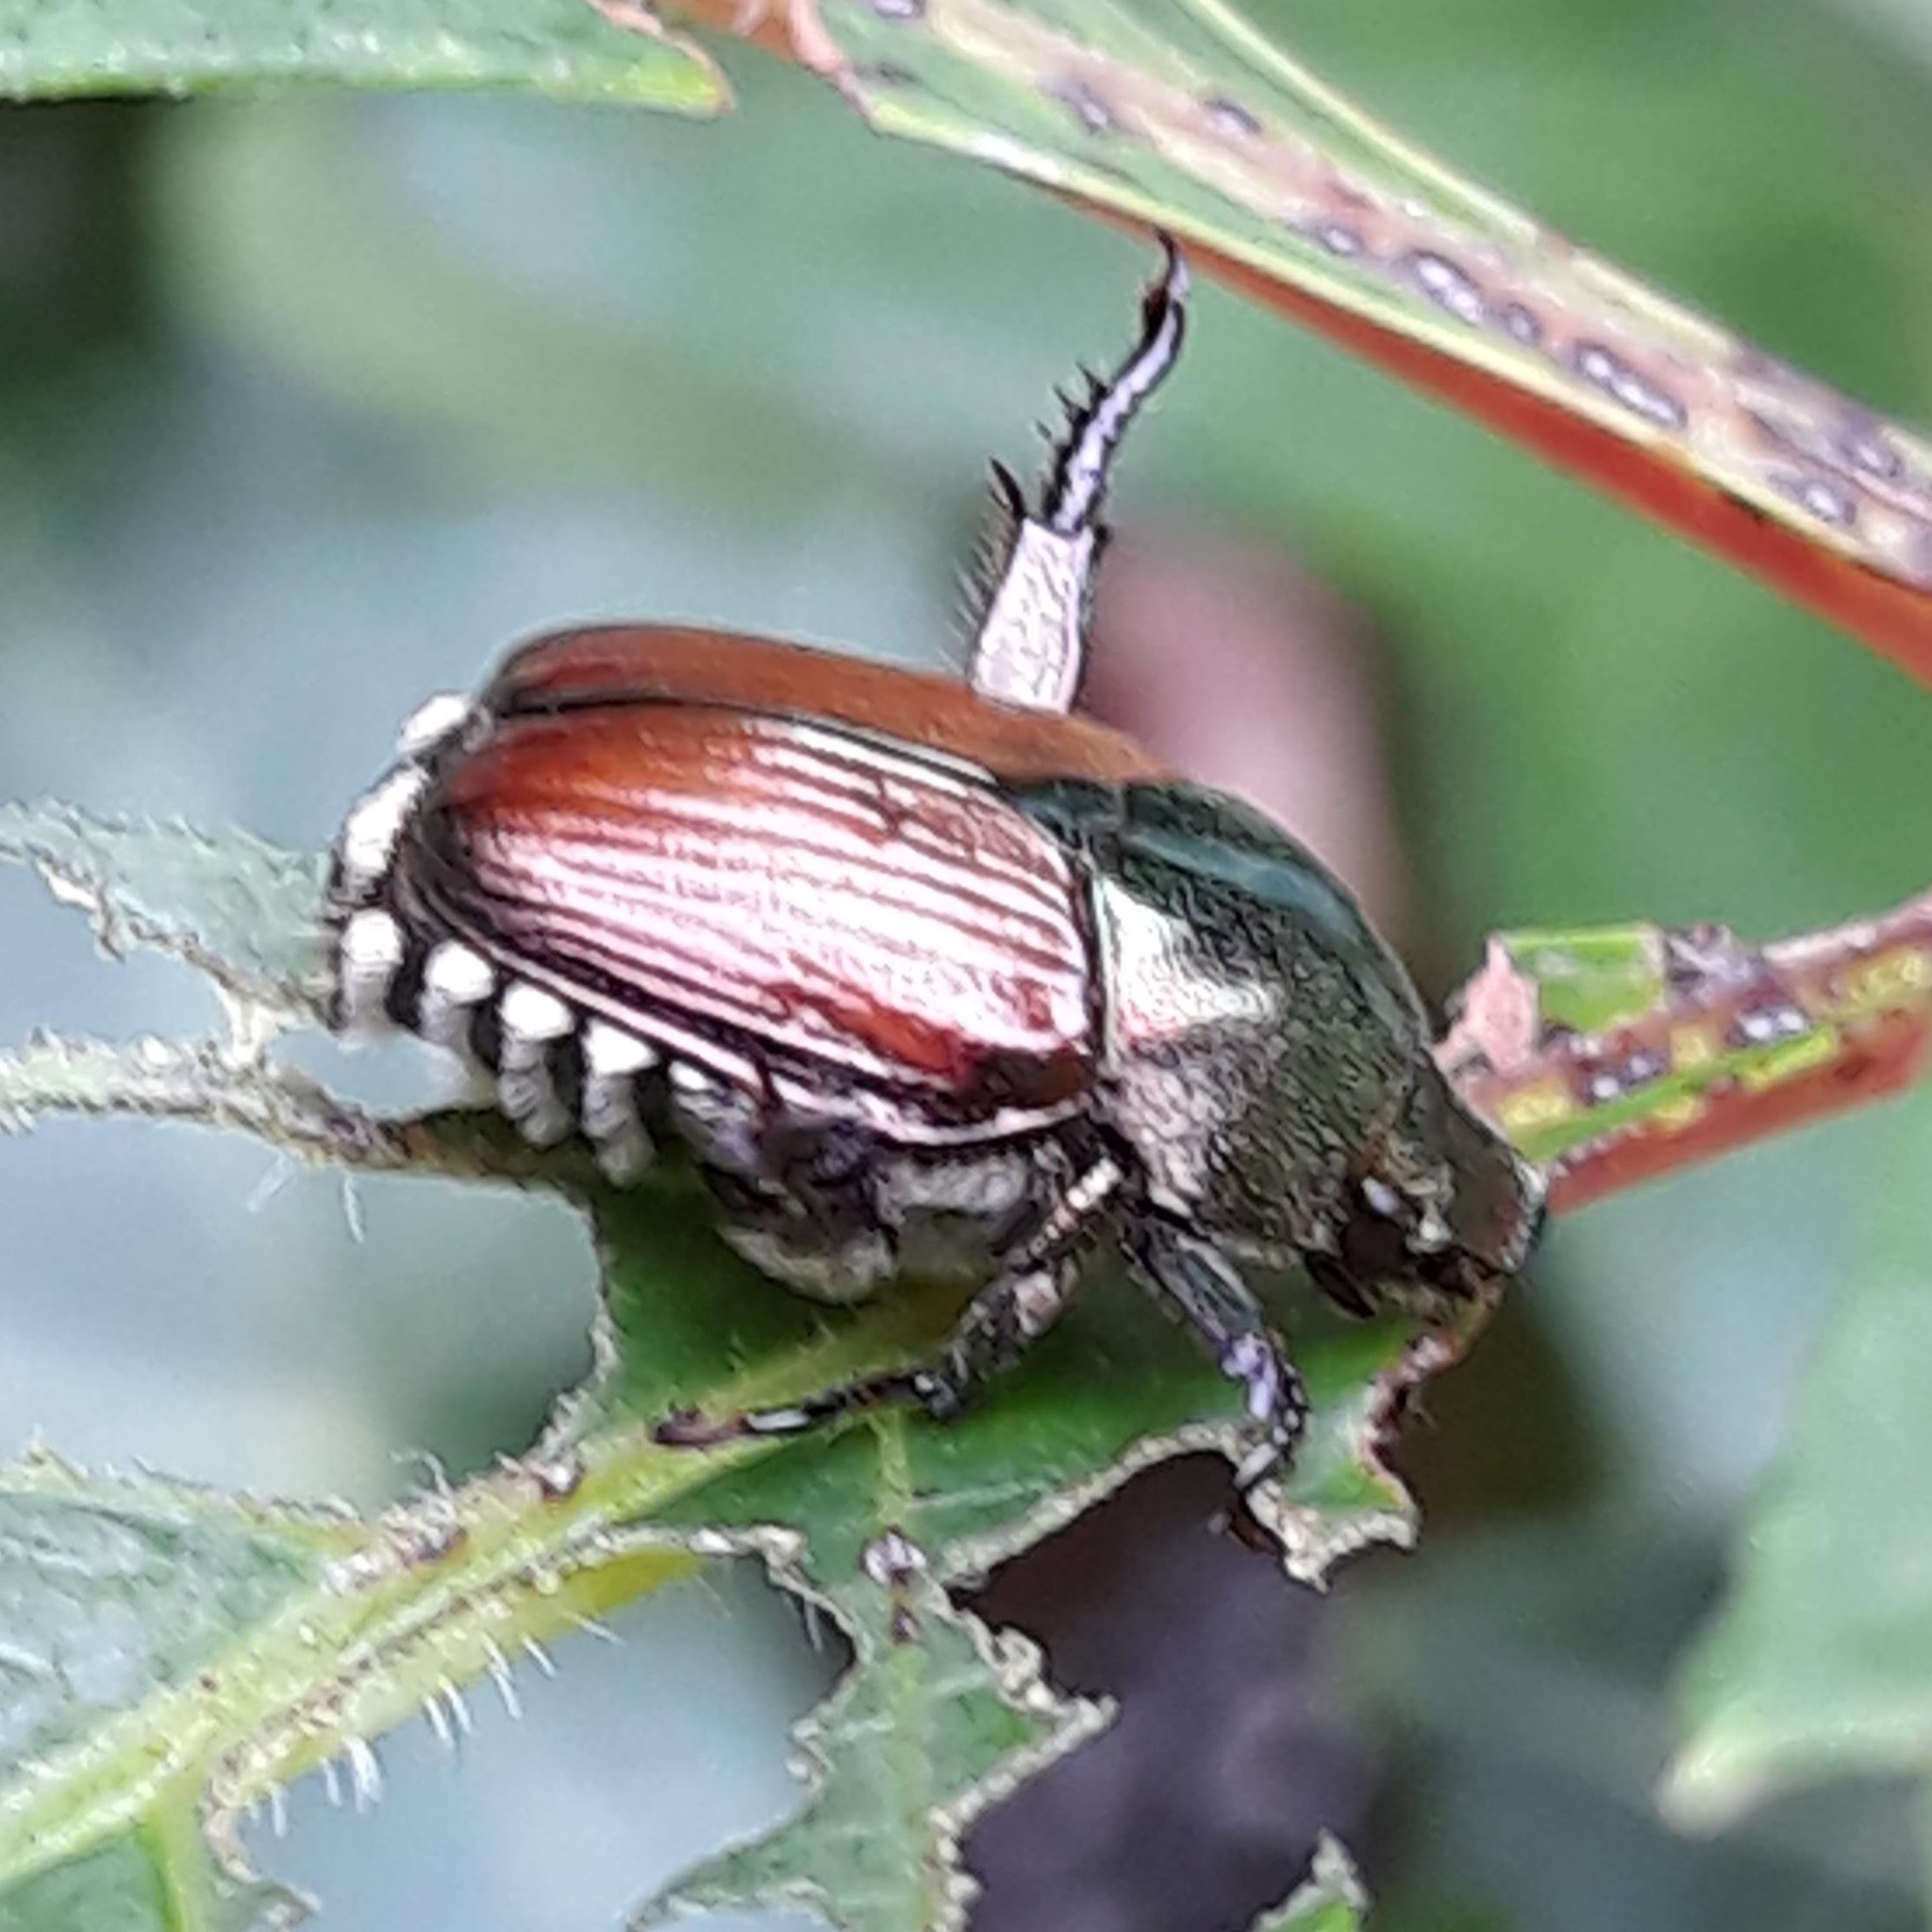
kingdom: Animalia
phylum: Arthropoda
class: Insecta
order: Coleoptera
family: Scarabaeidae
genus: Popillia
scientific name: Popillia japonica
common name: Japanese beetle
